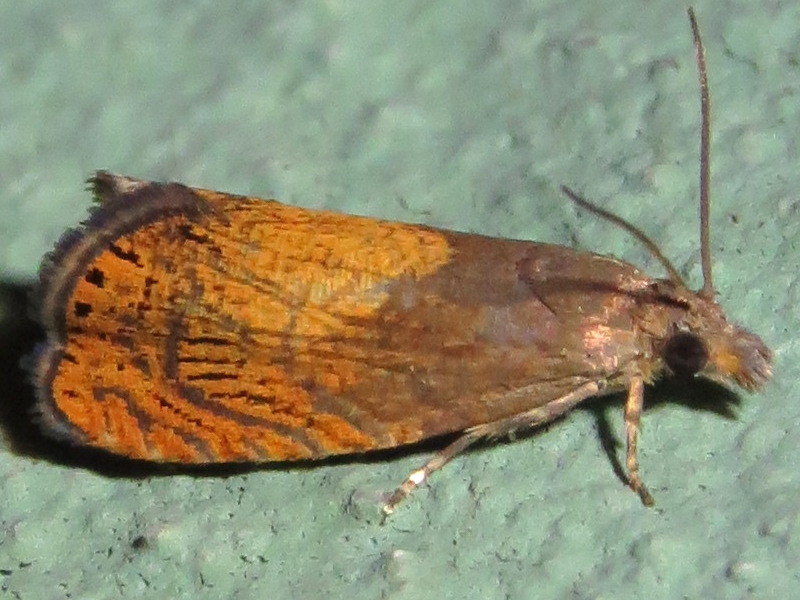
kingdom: Animalia
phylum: Arthropoda
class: Insecta
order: Lepidoptera
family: Tortricidae
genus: Dichrorampha
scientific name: Dichrorampha bittana
